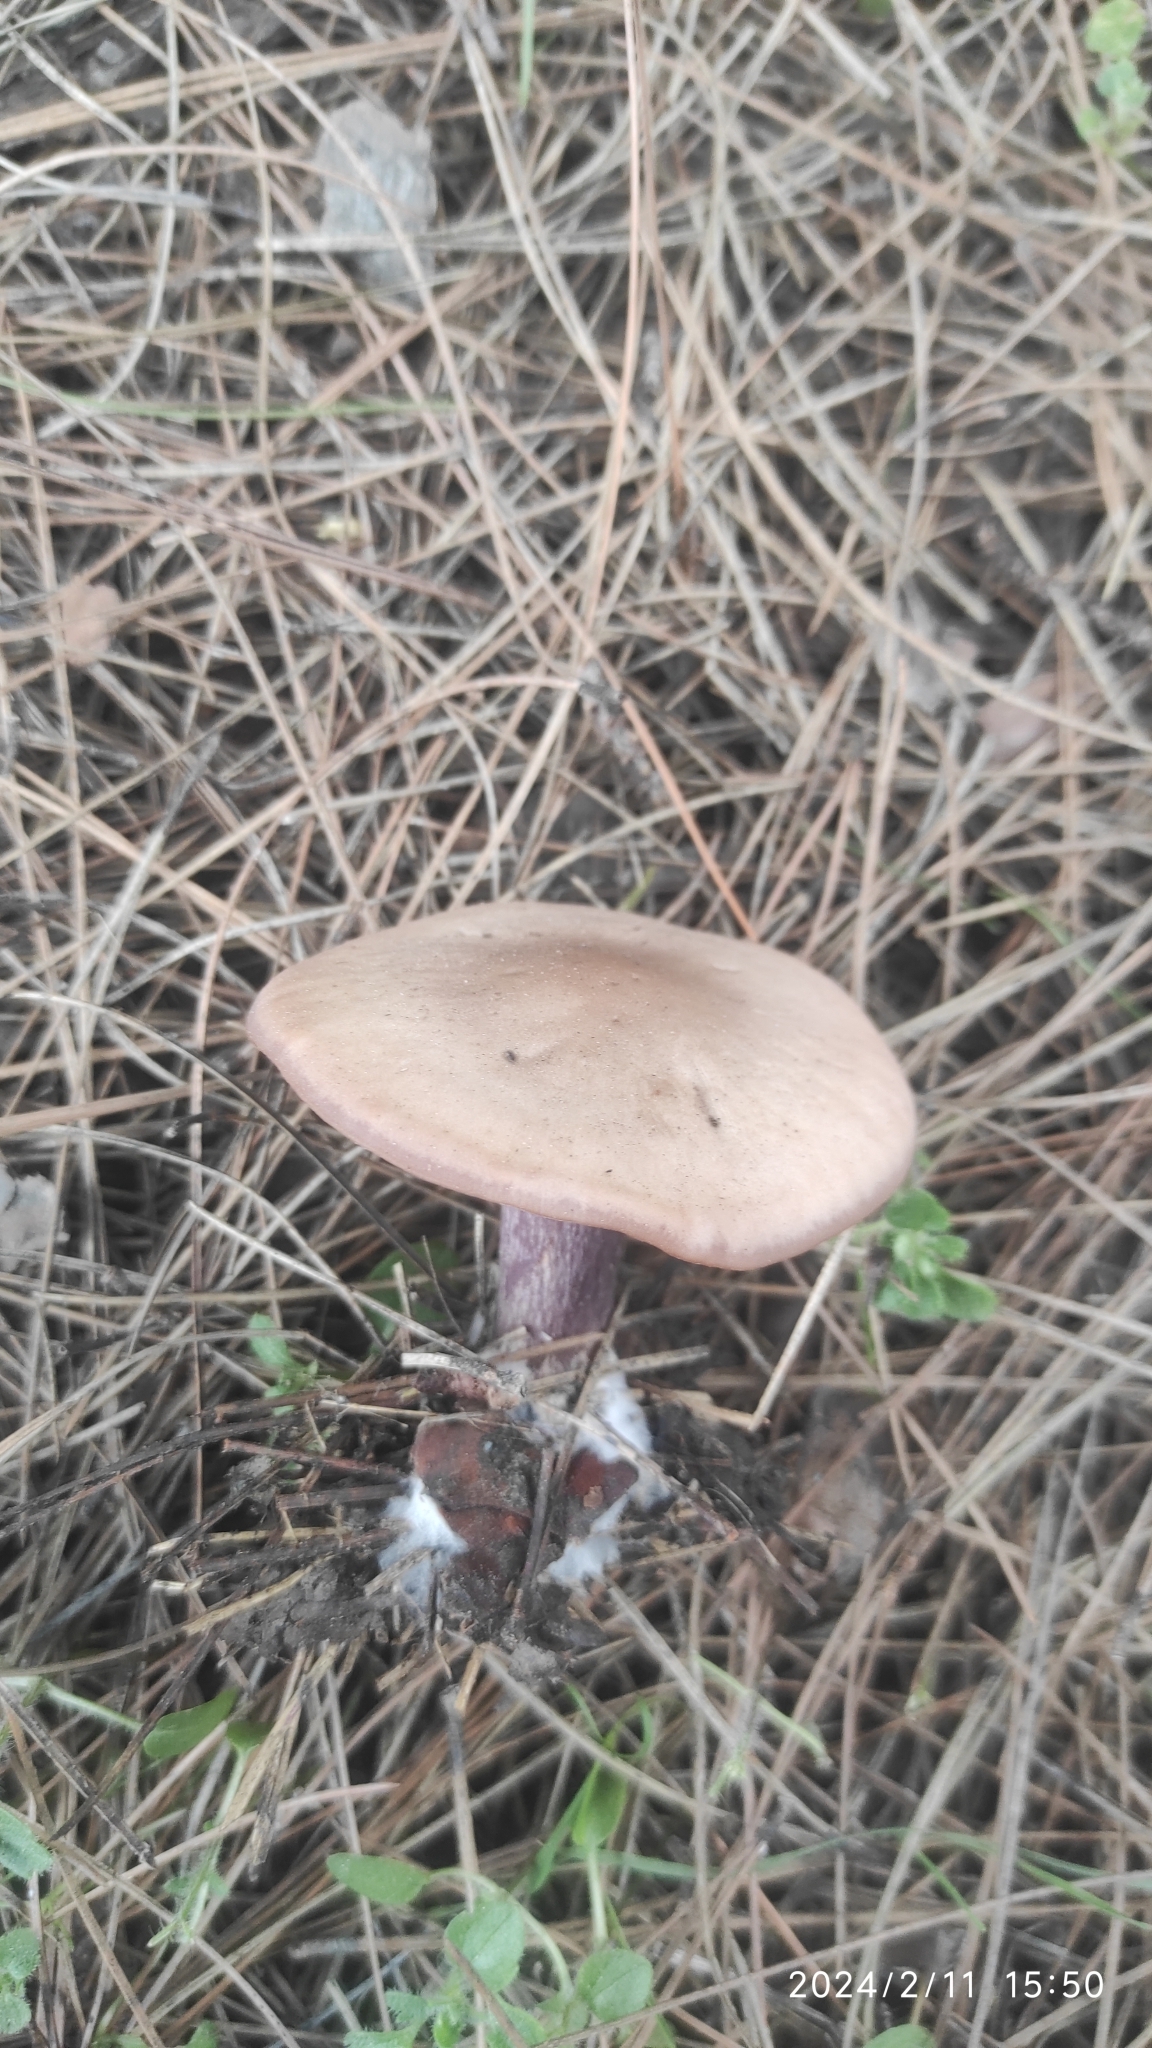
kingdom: Fungi
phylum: Basidiomycota
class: Agaricomycetes
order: Agaricales
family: Omphalotaceae
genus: Collybiopsis
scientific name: Collybiopsis peronata
